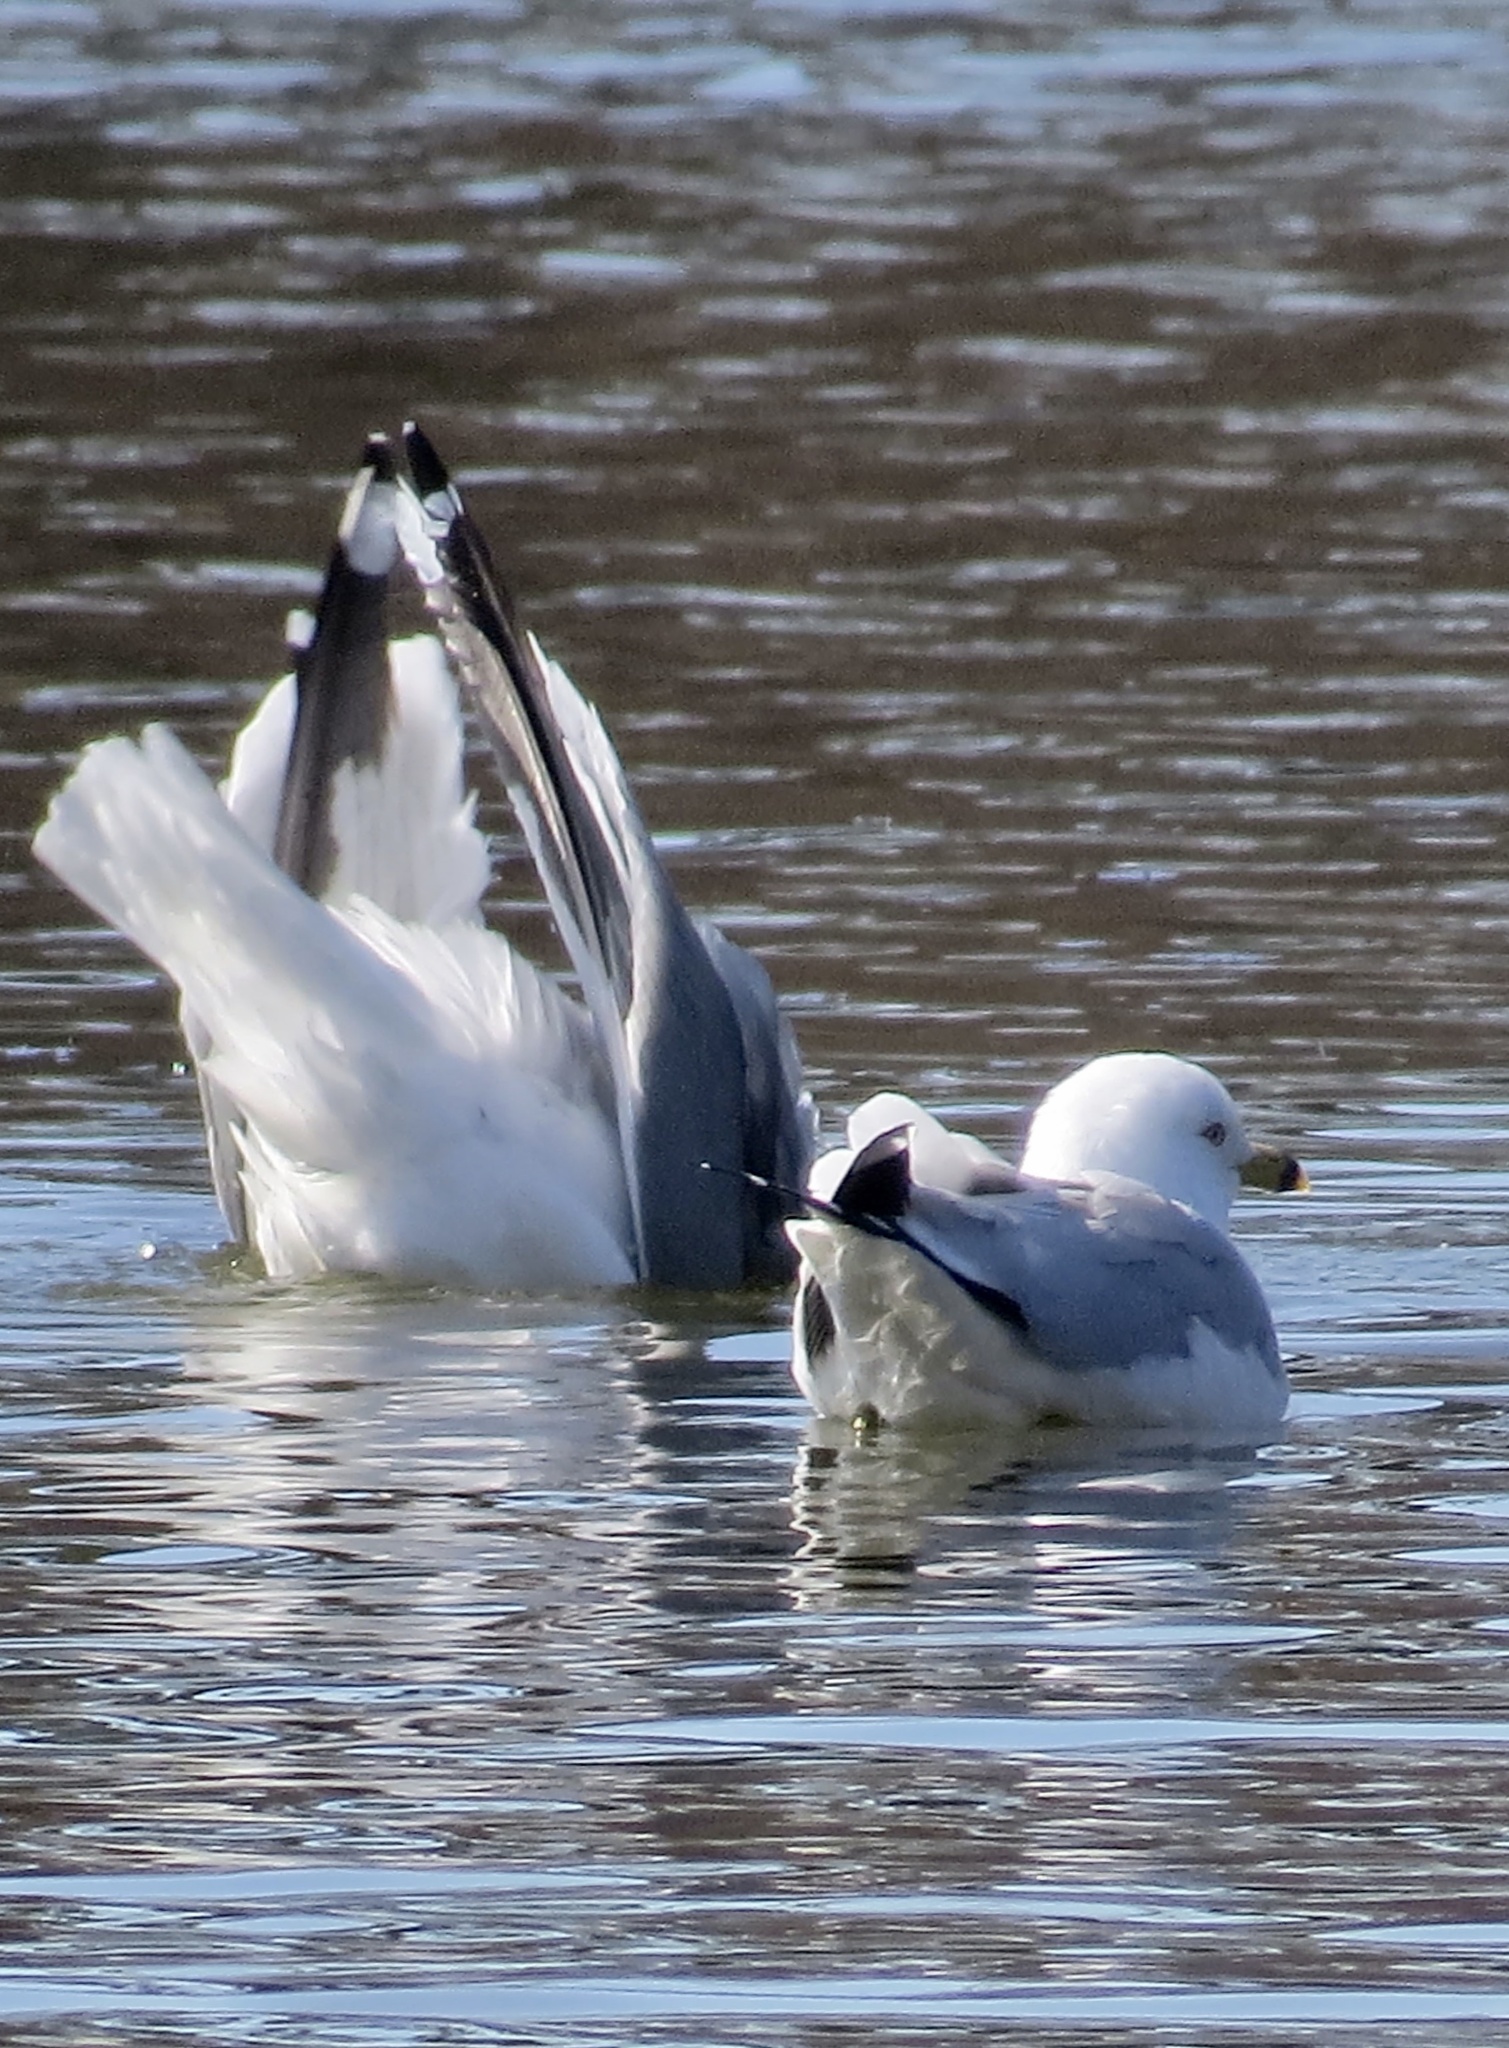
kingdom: Animalia
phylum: Chordata
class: Aves
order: Charadriiformes
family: Laridae
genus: Larus
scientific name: Larus delawarensis
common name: Ring-billed gull
